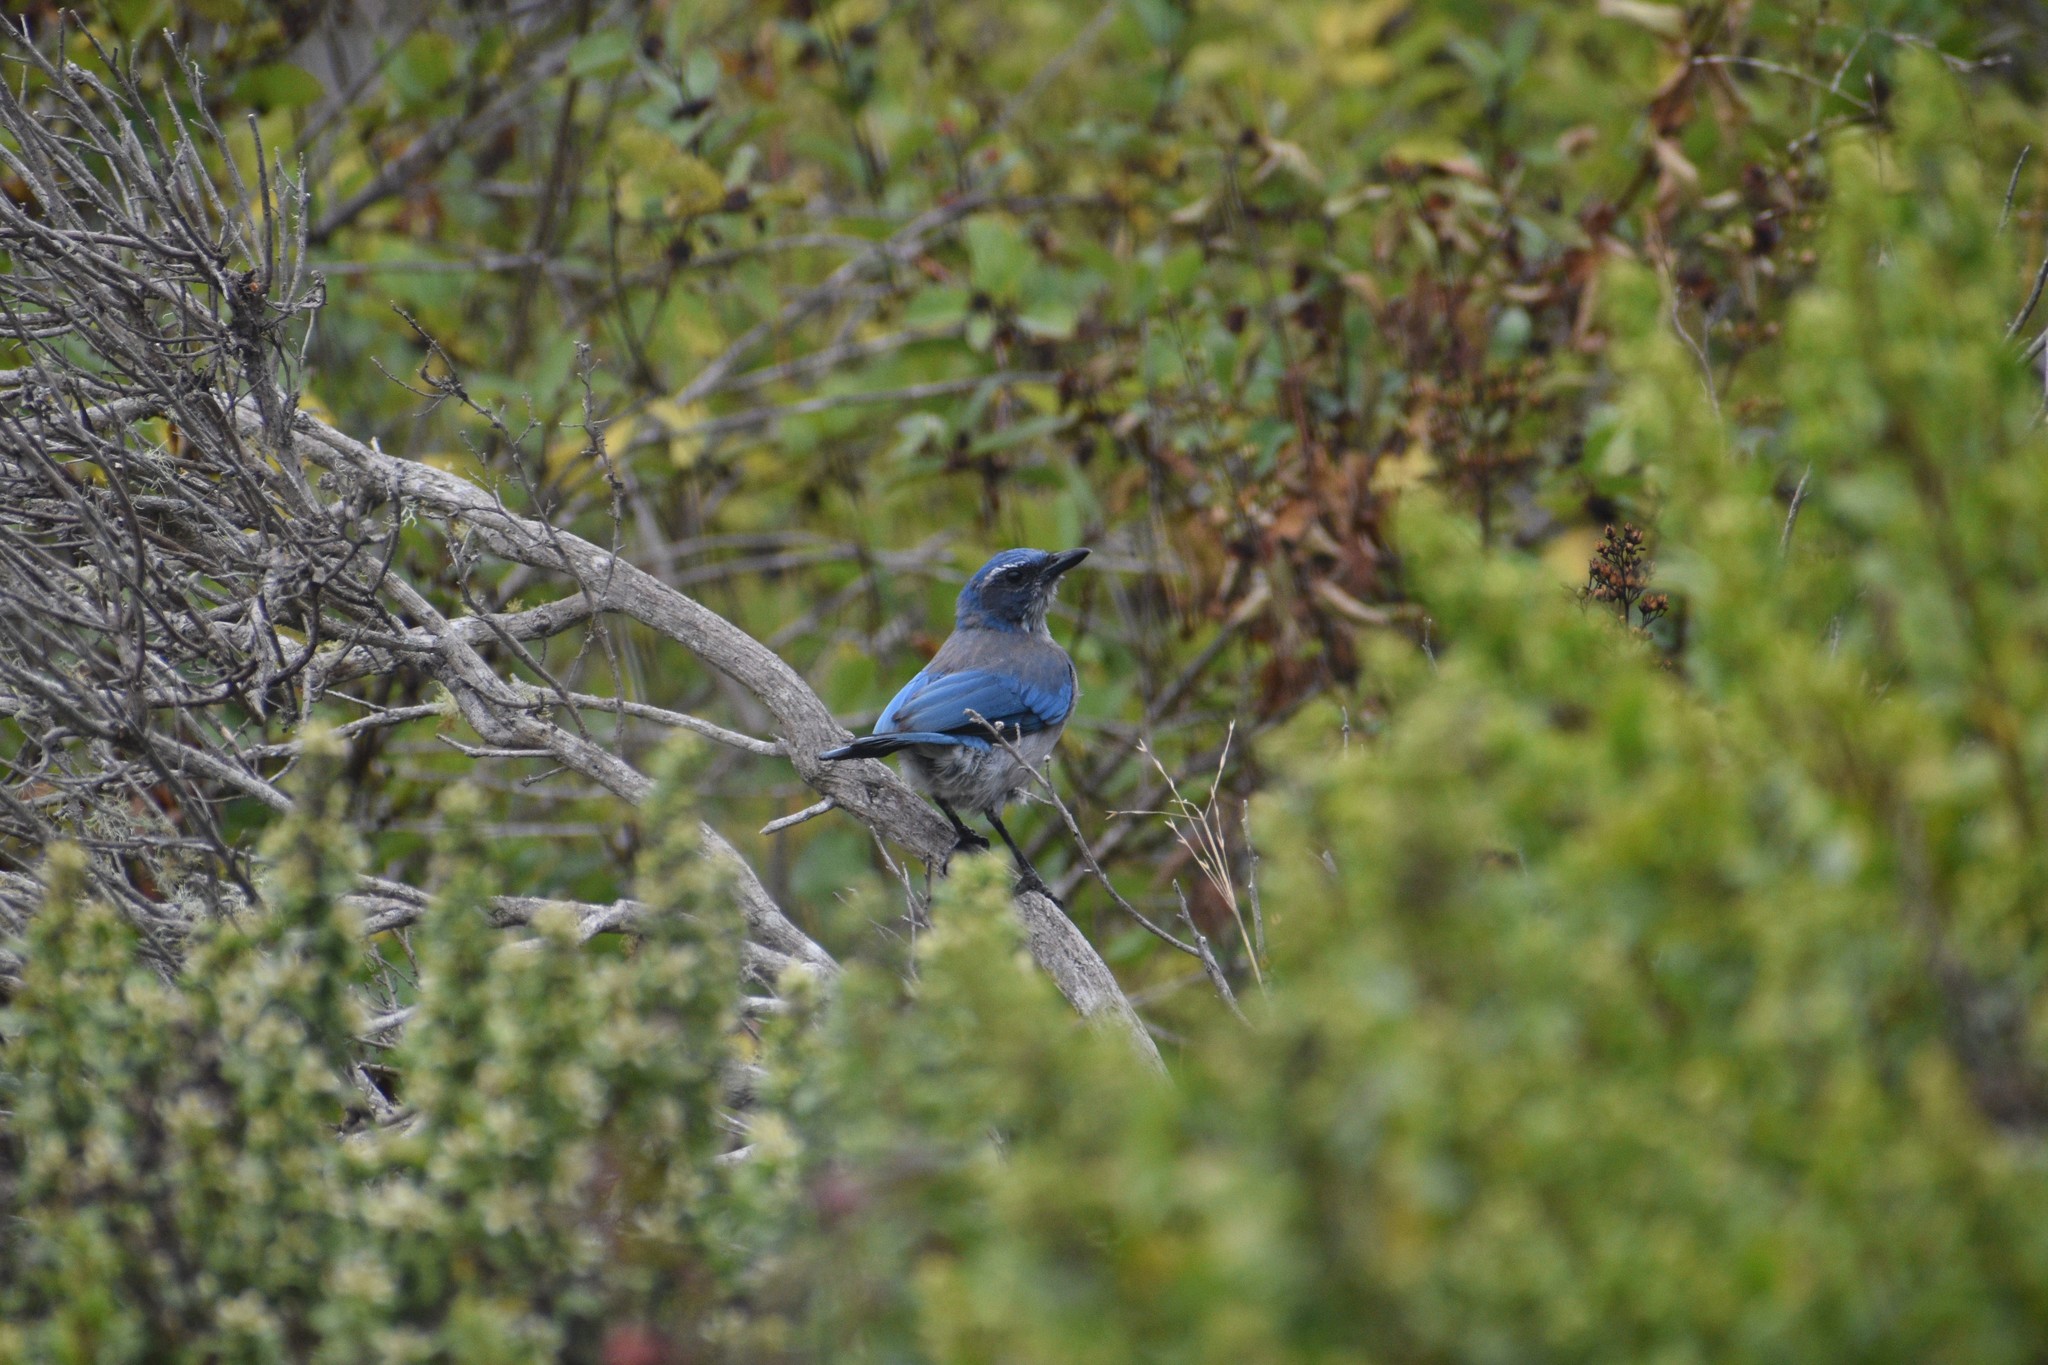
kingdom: Animalia
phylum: Chordata
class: Aves
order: Passeriformes
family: Corvidae
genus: Aphelocoma
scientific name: Aphelocoma californica
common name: California scrub-jay
